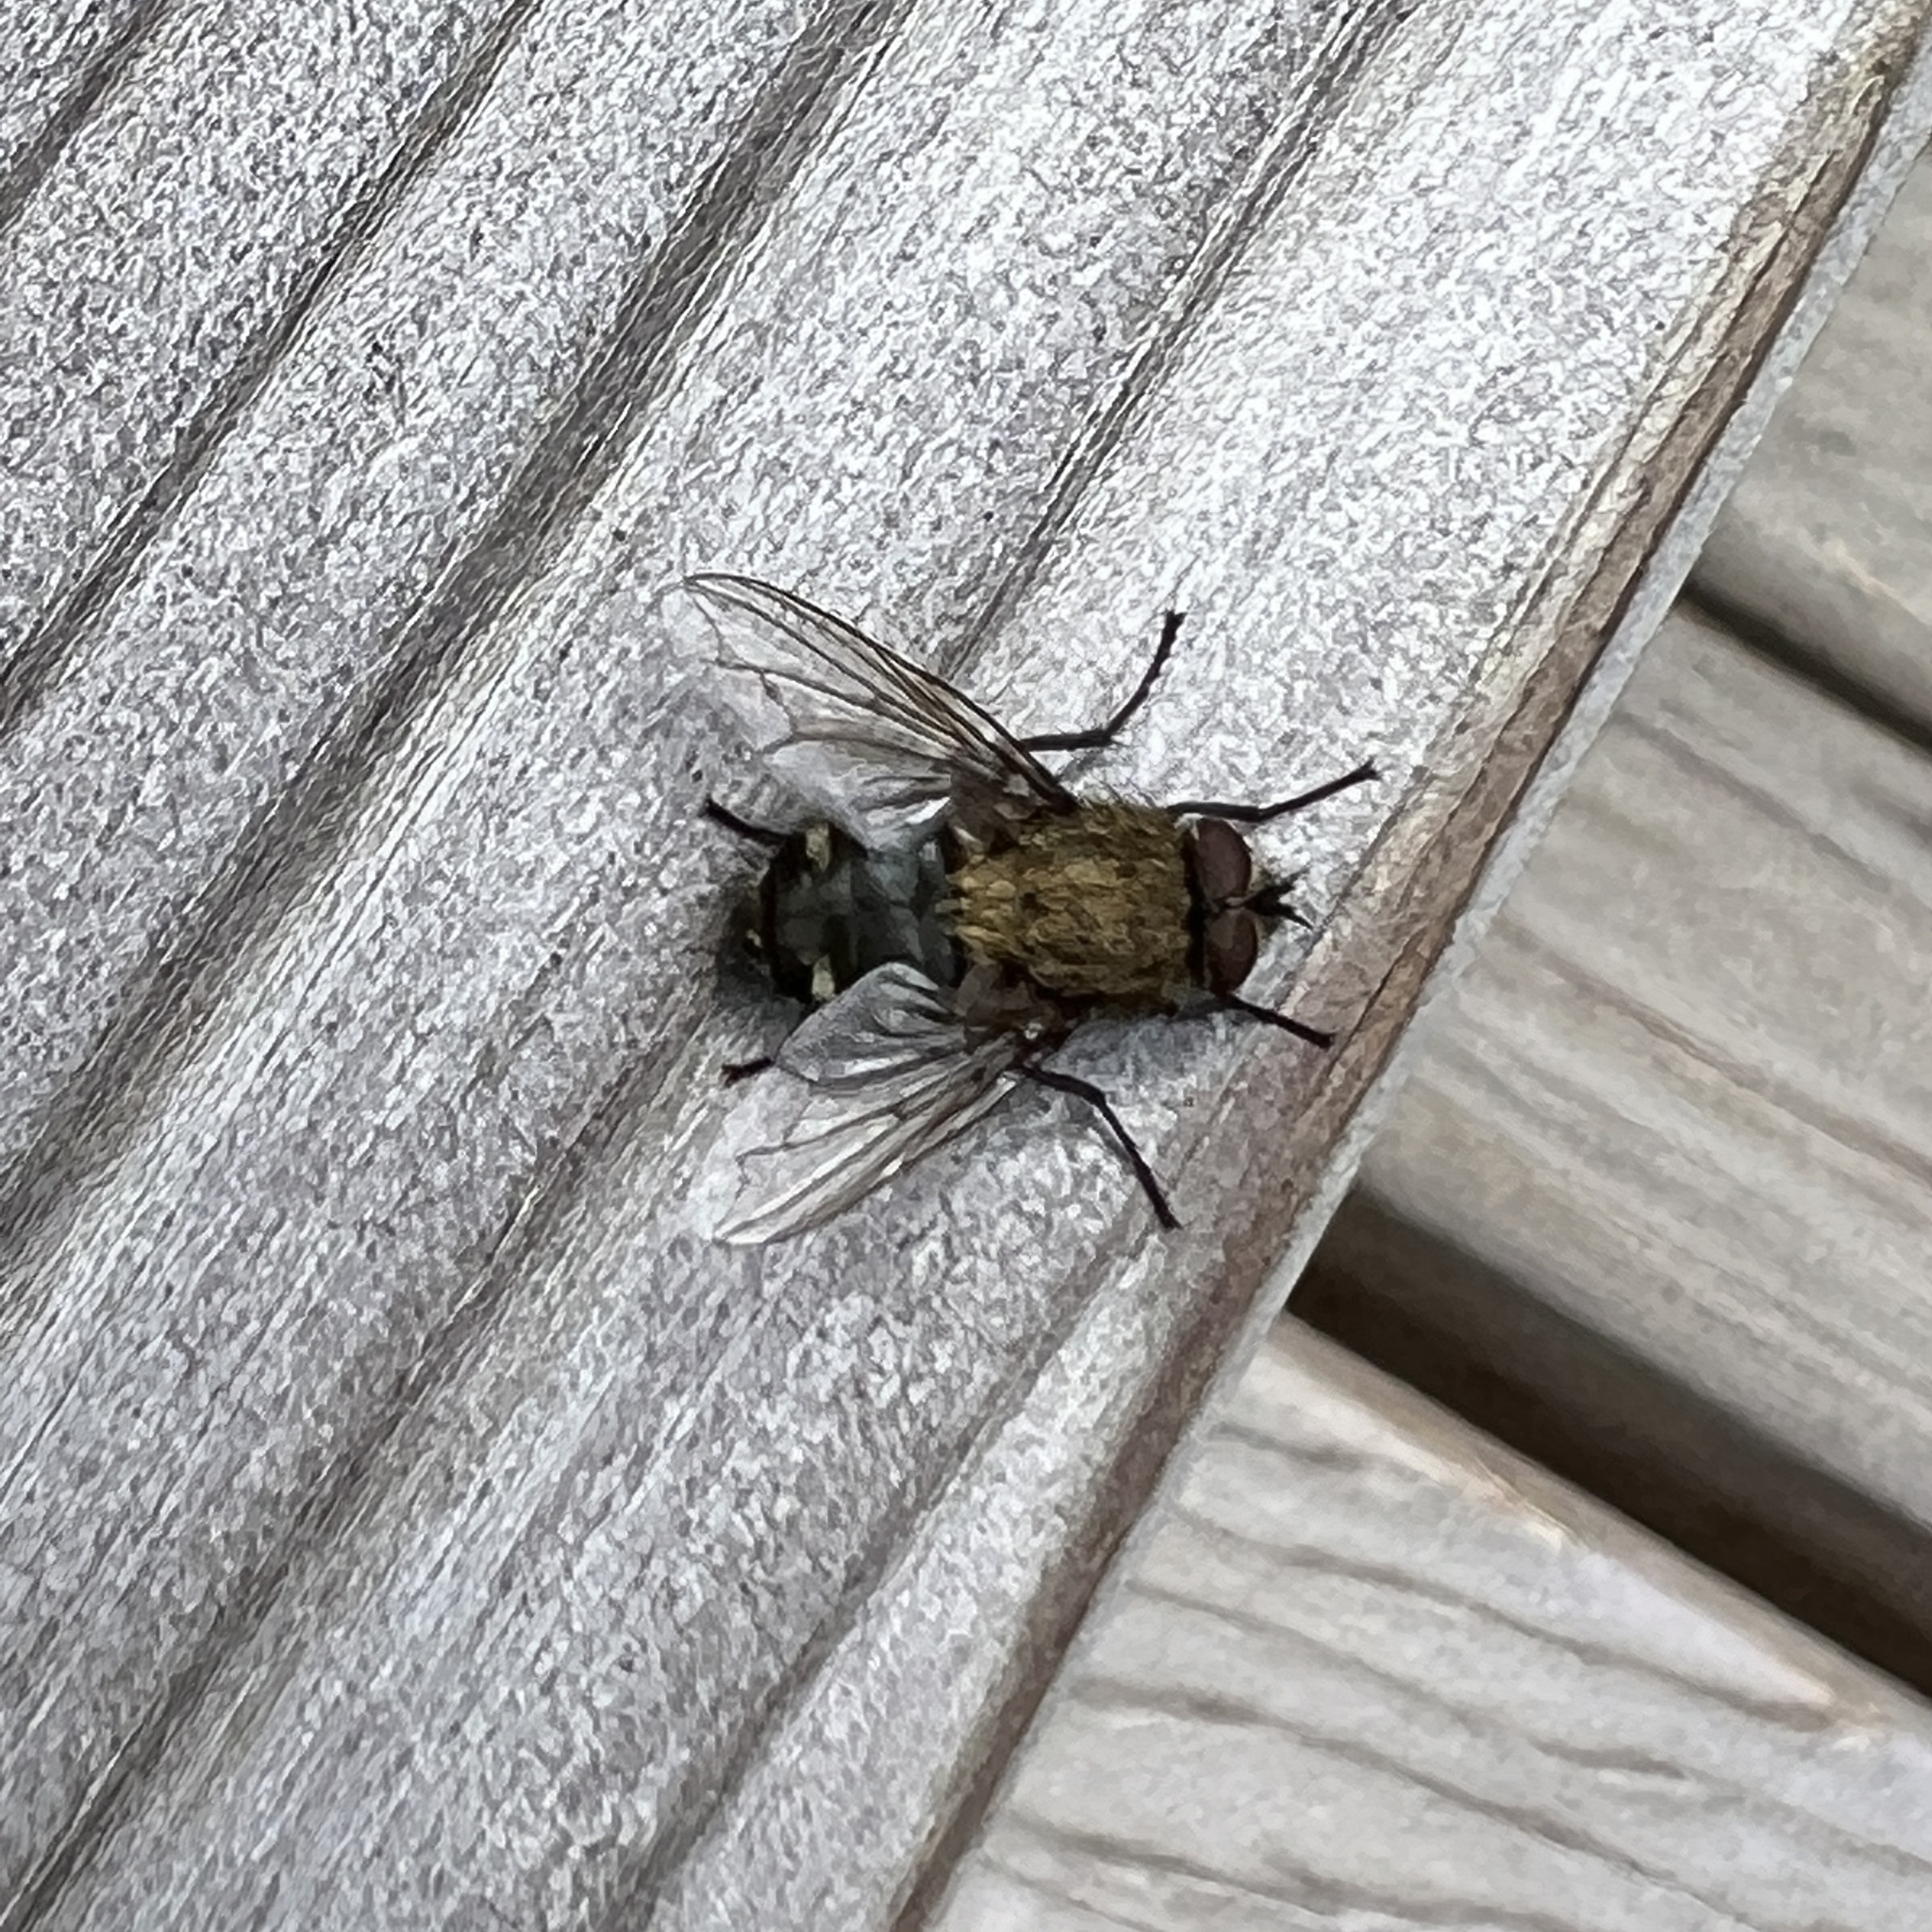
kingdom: Animalia
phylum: Arthropoda
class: Insecta
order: Diptera
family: Polleniidae
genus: Pollenia
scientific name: Pollenia
